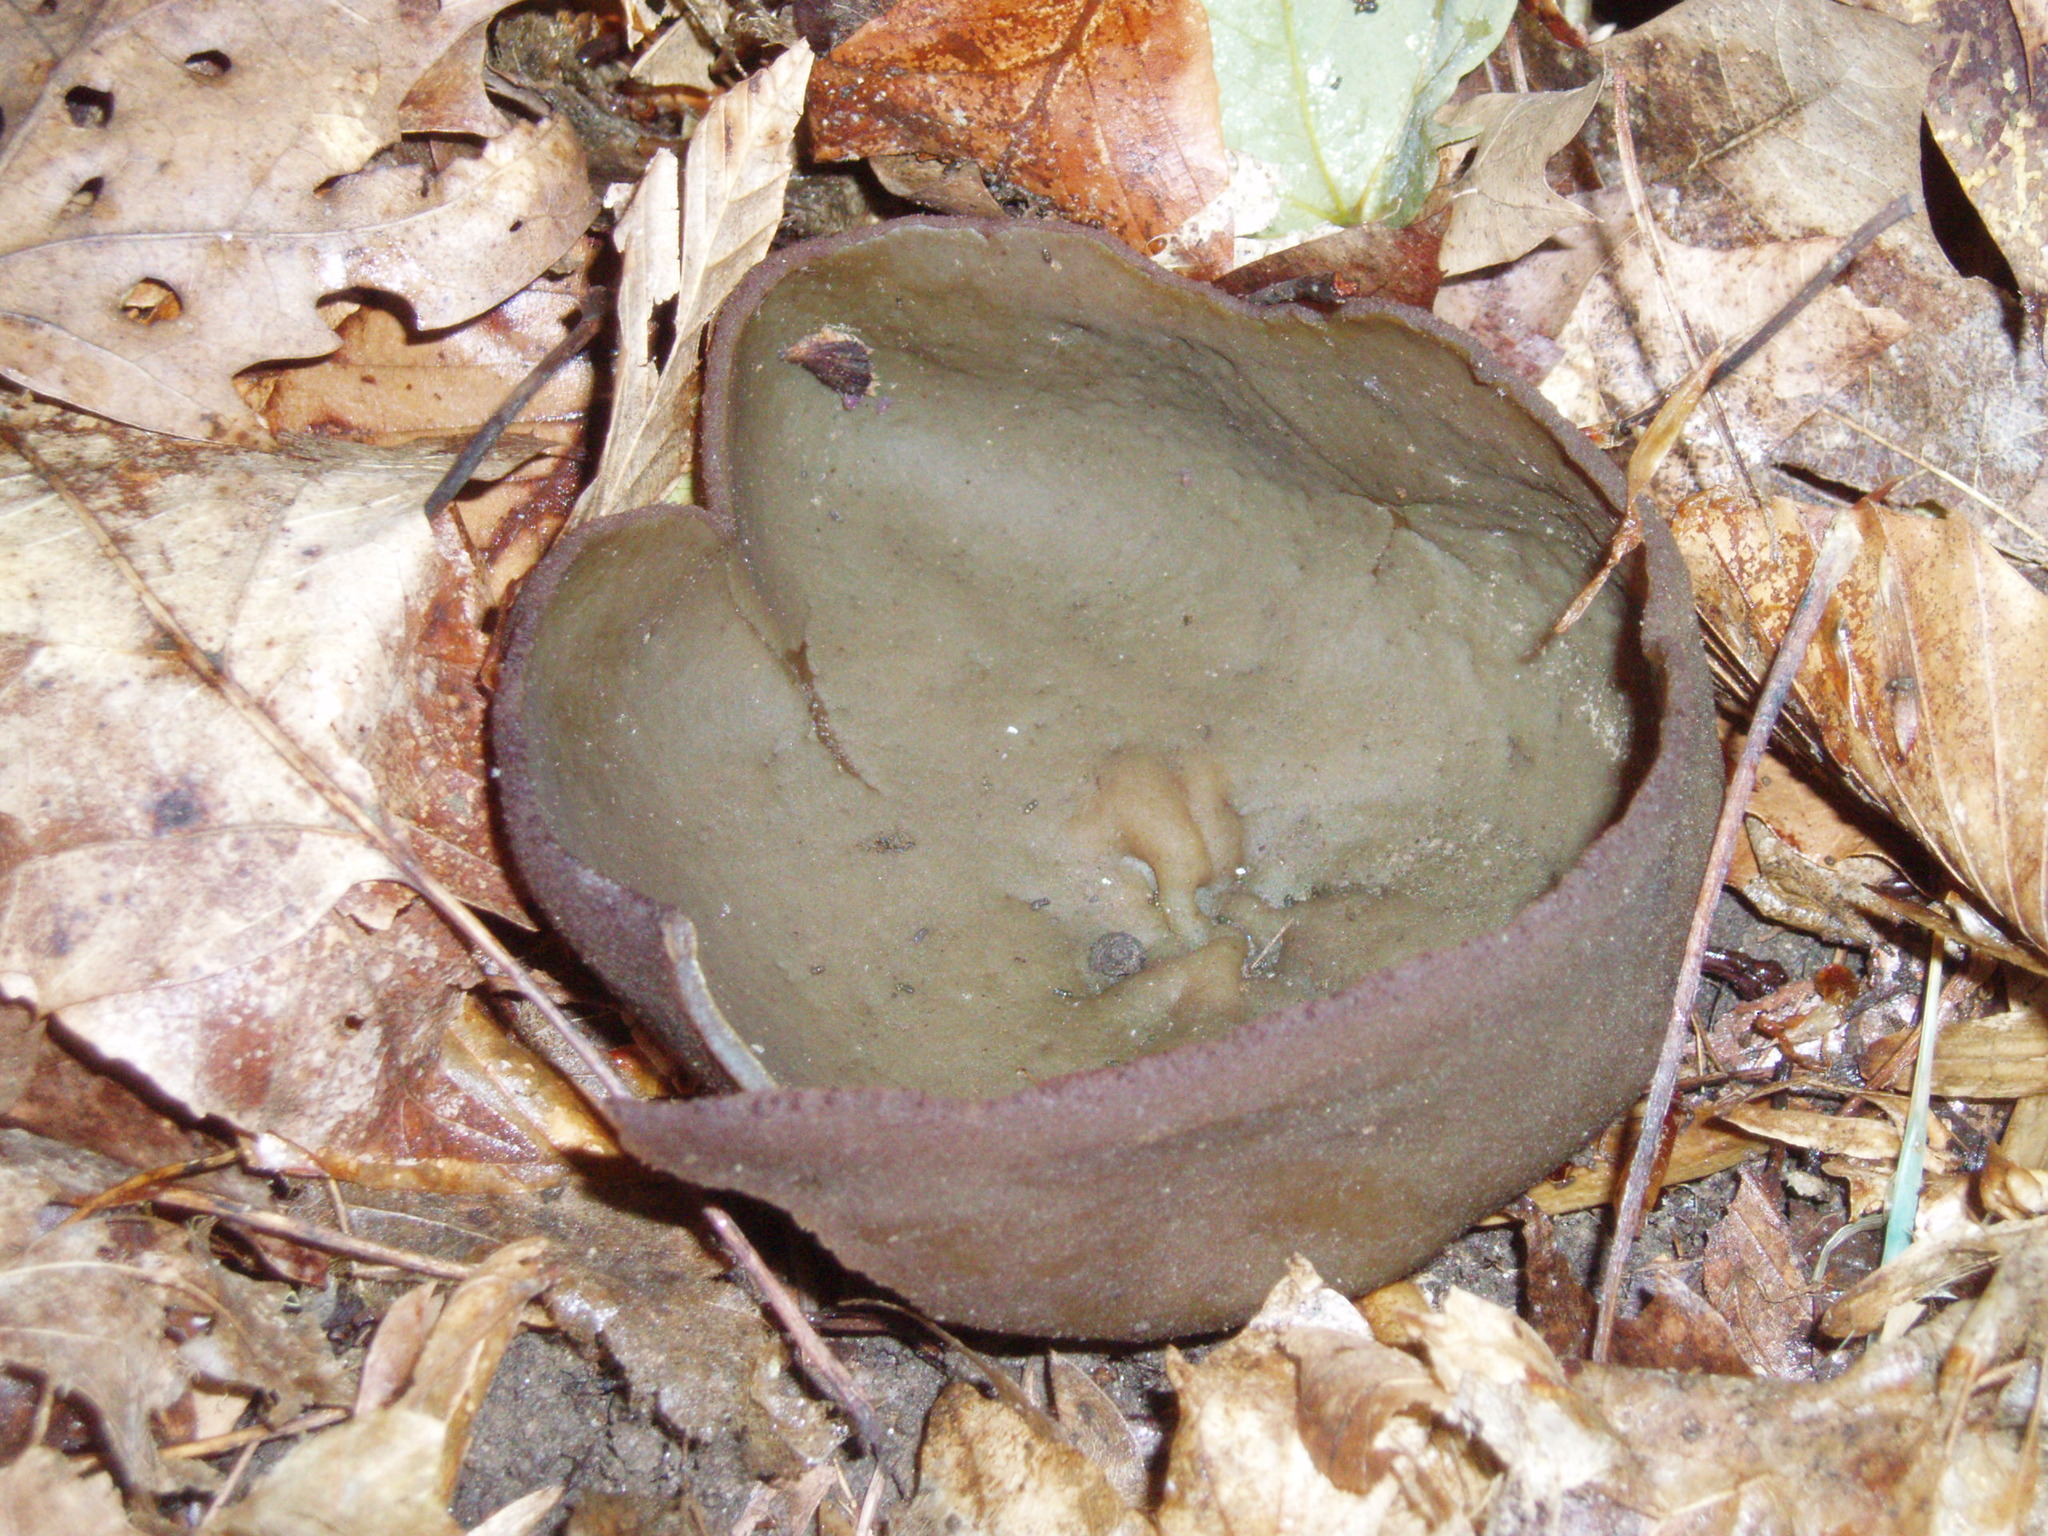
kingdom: Fungi
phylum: Ascomycota
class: Pezizomycetes
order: Pezizales
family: Pezizaceae
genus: Phylloscypha
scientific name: Phylloscypha phyllogena
